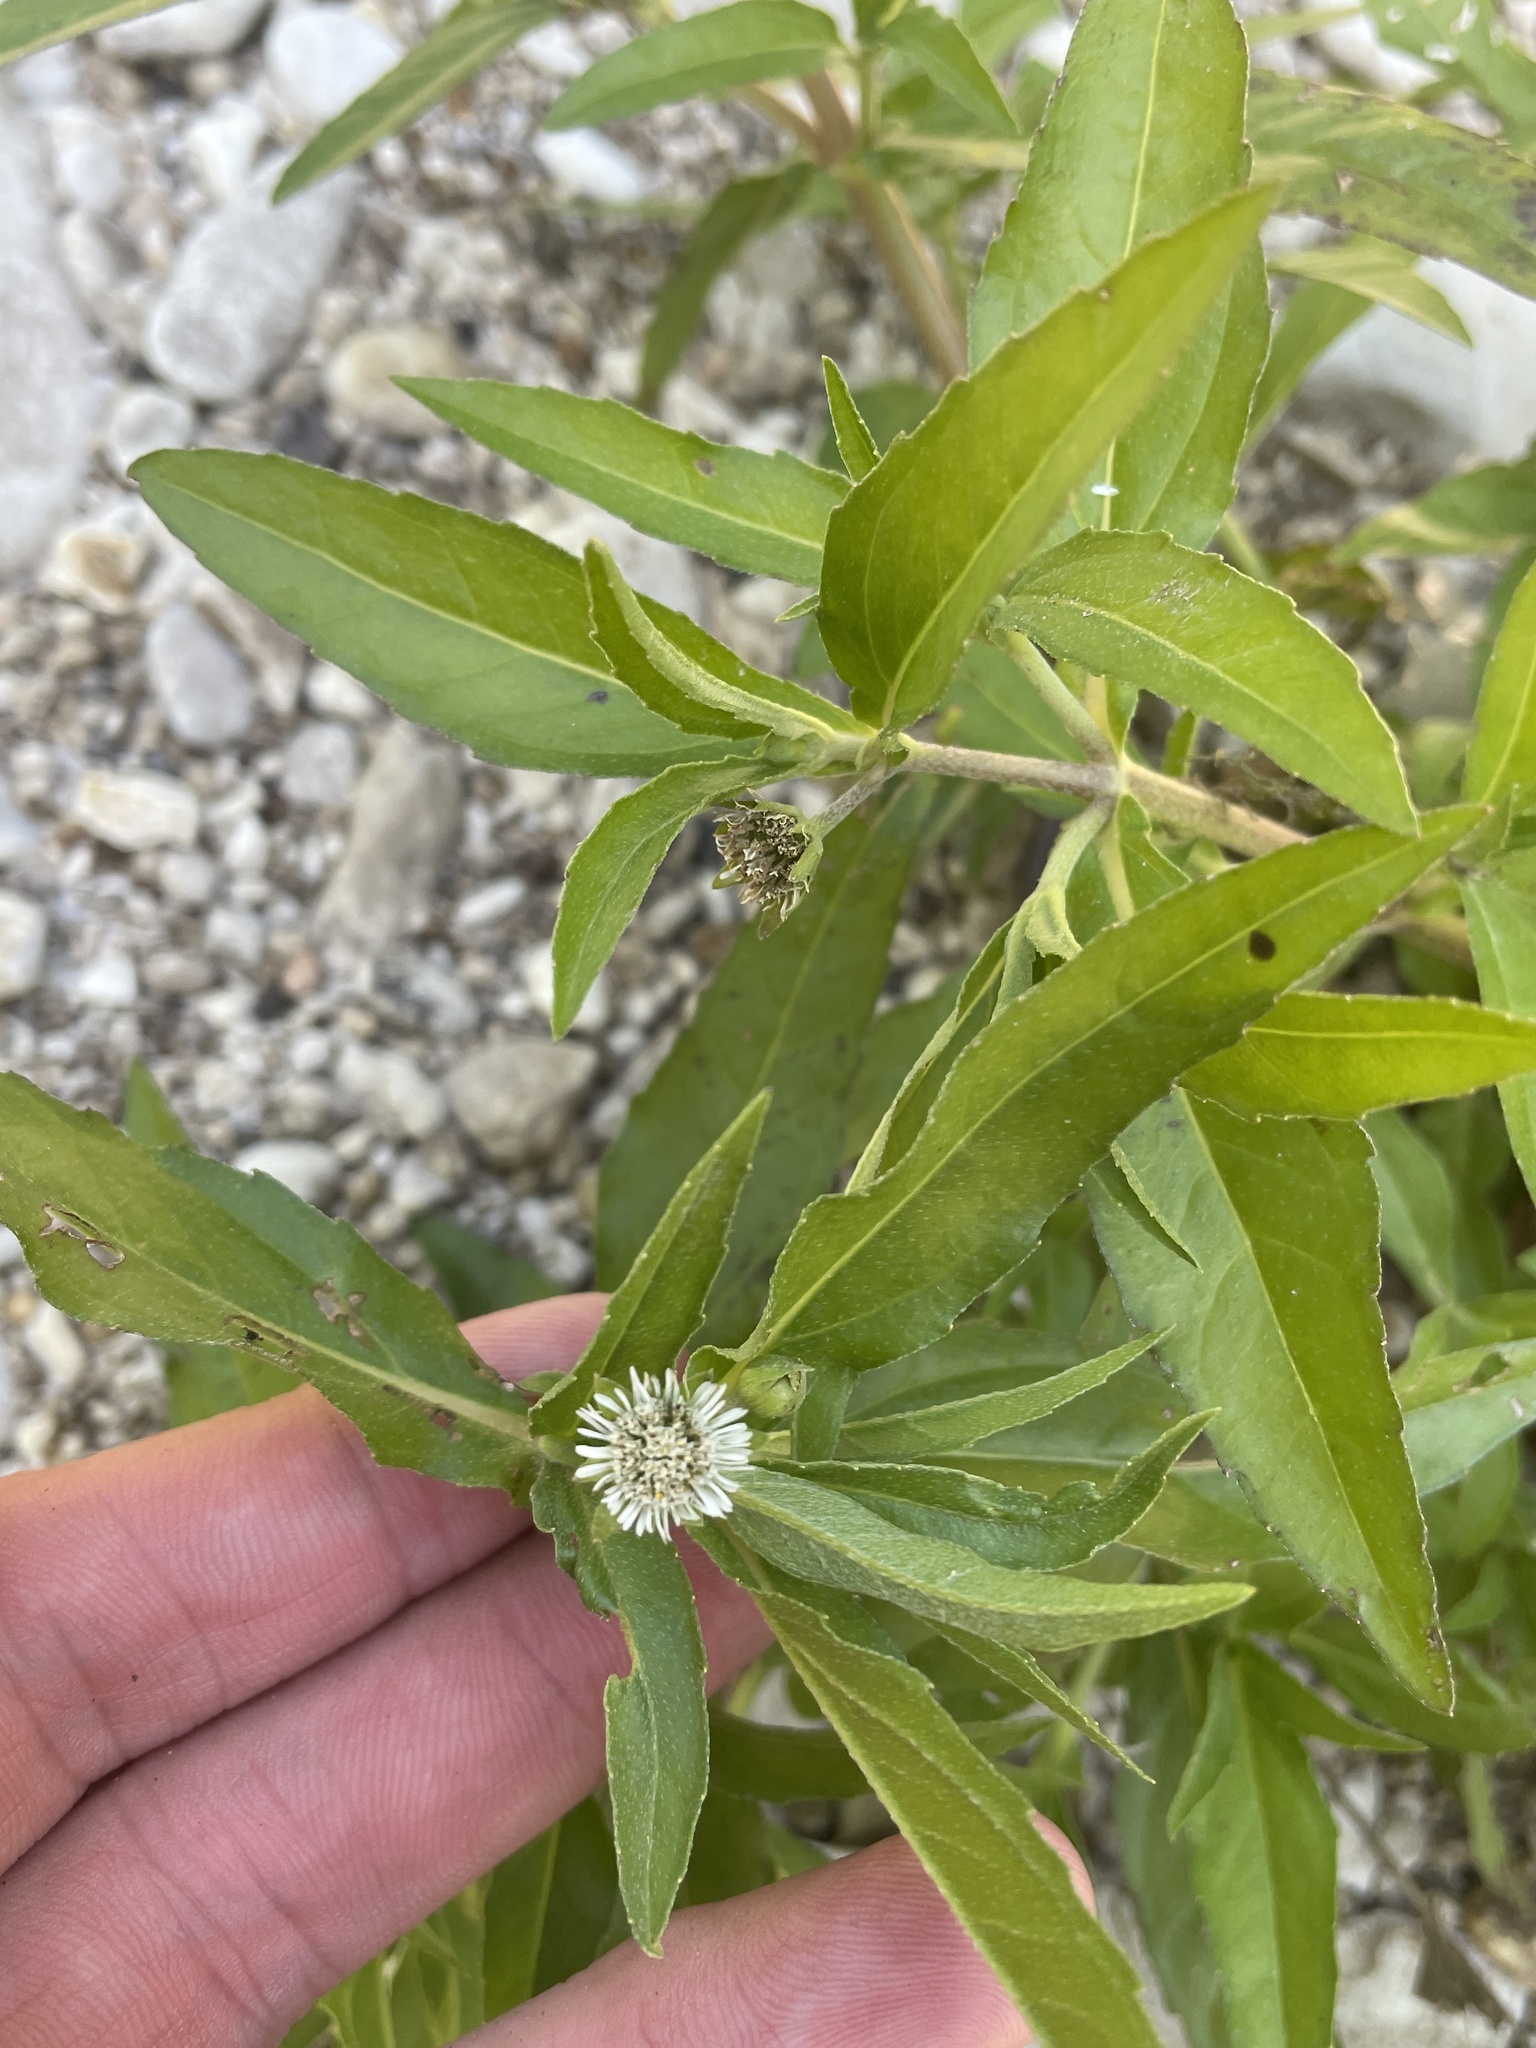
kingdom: Plantae
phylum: Tracheophyta
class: Magnoliopsida
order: Asterales
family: Asteraceae
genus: Eclipta
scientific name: Eclipta prostrata
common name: False daisy
